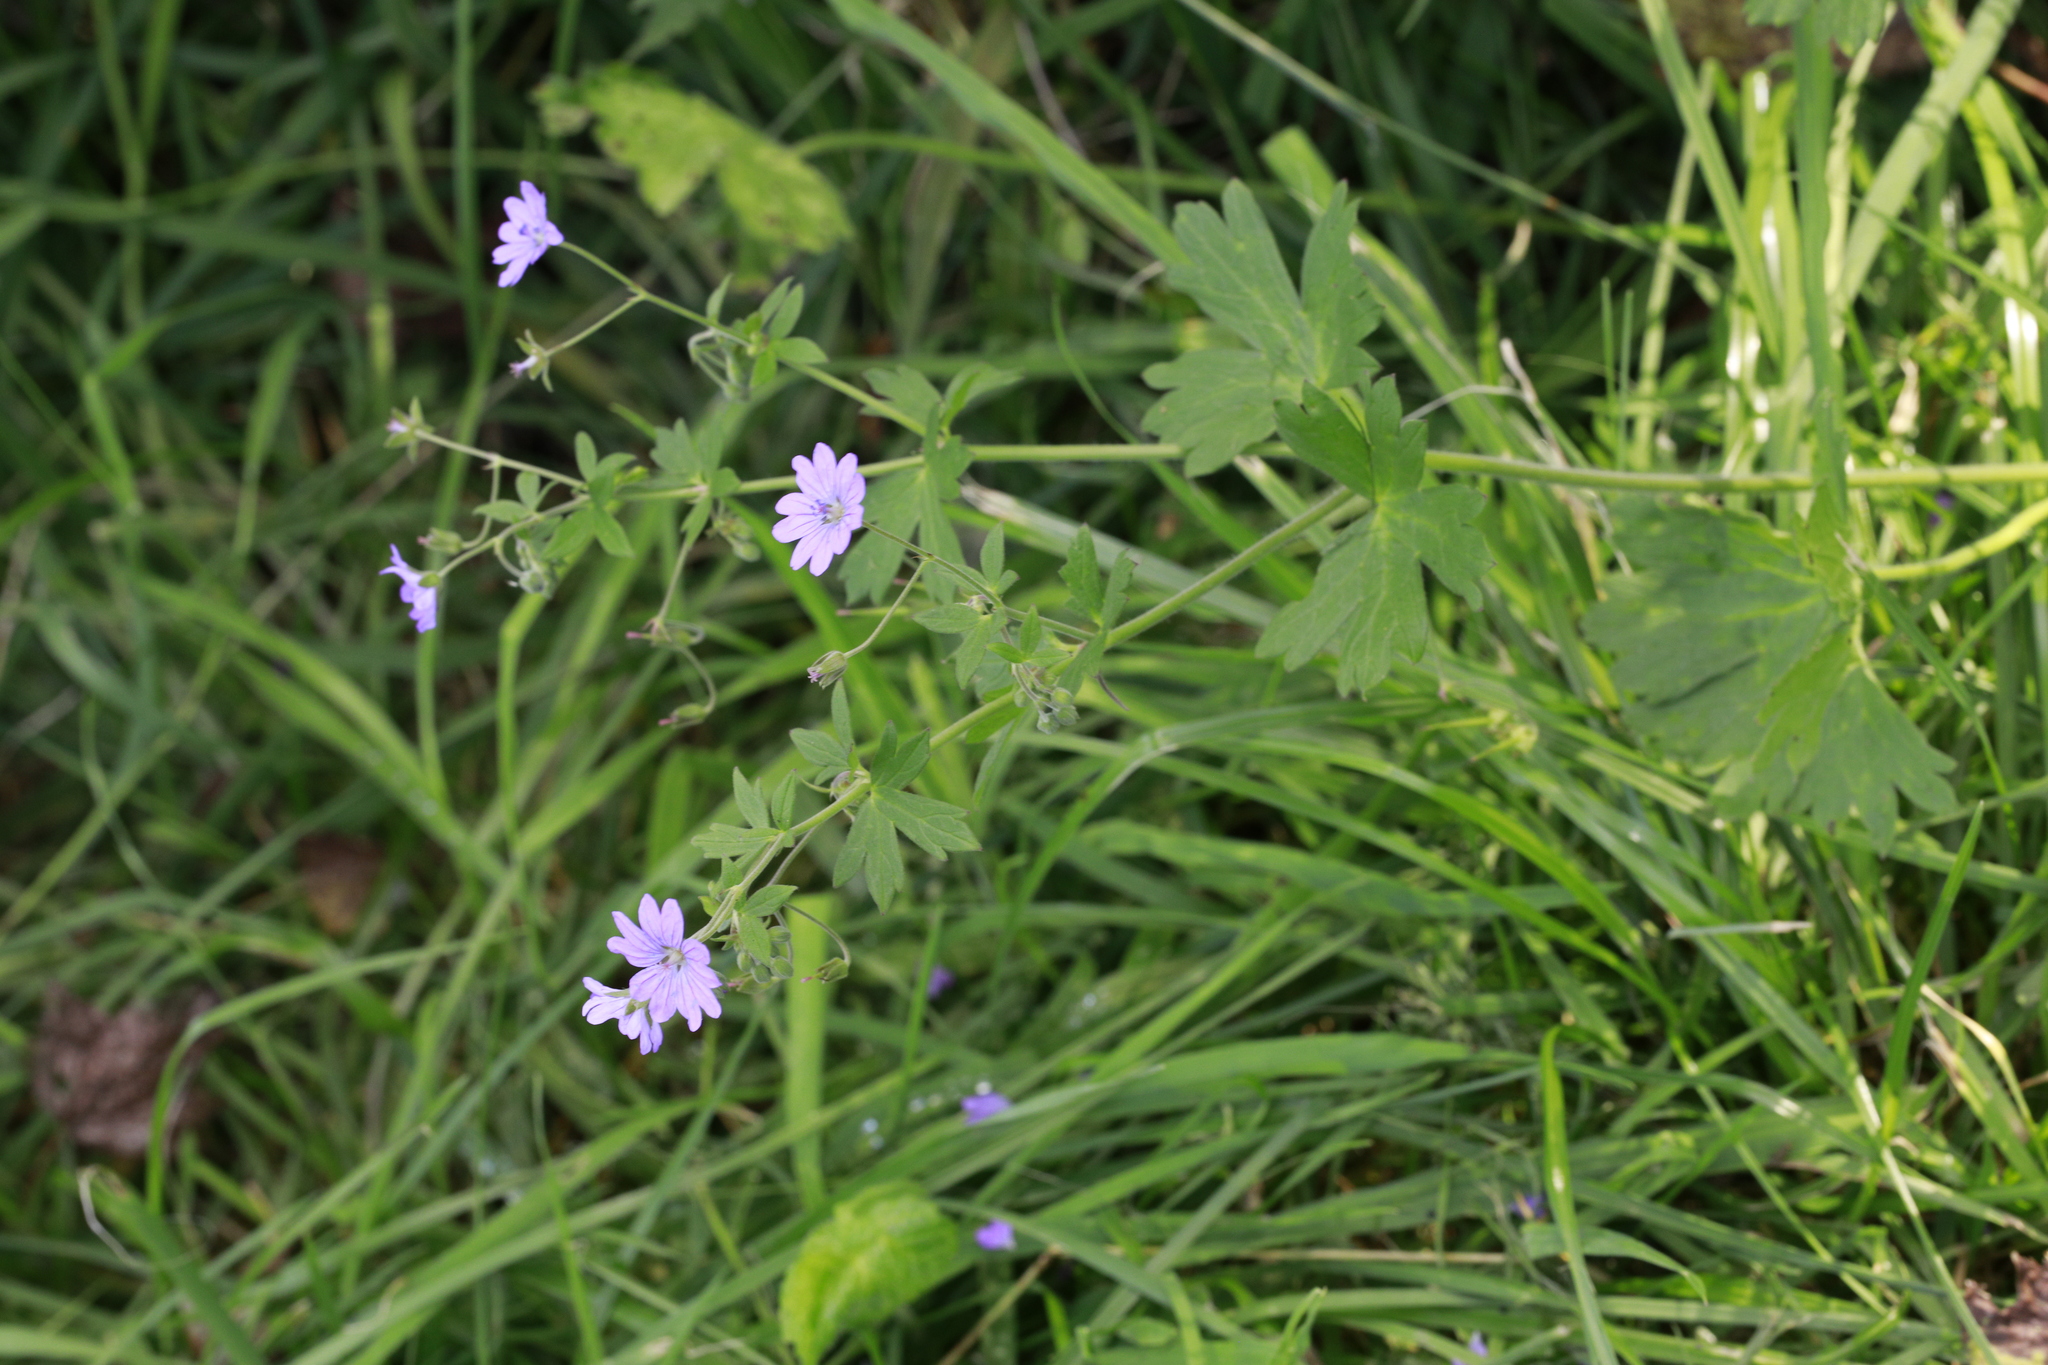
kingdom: Plantae
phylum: Tracheophyta
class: Magnoliopsida
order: Geraniales
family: Geraniaceae
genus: Geranium
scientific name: Geranium pyrenaicum
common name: Hedgerow crane's-bill
